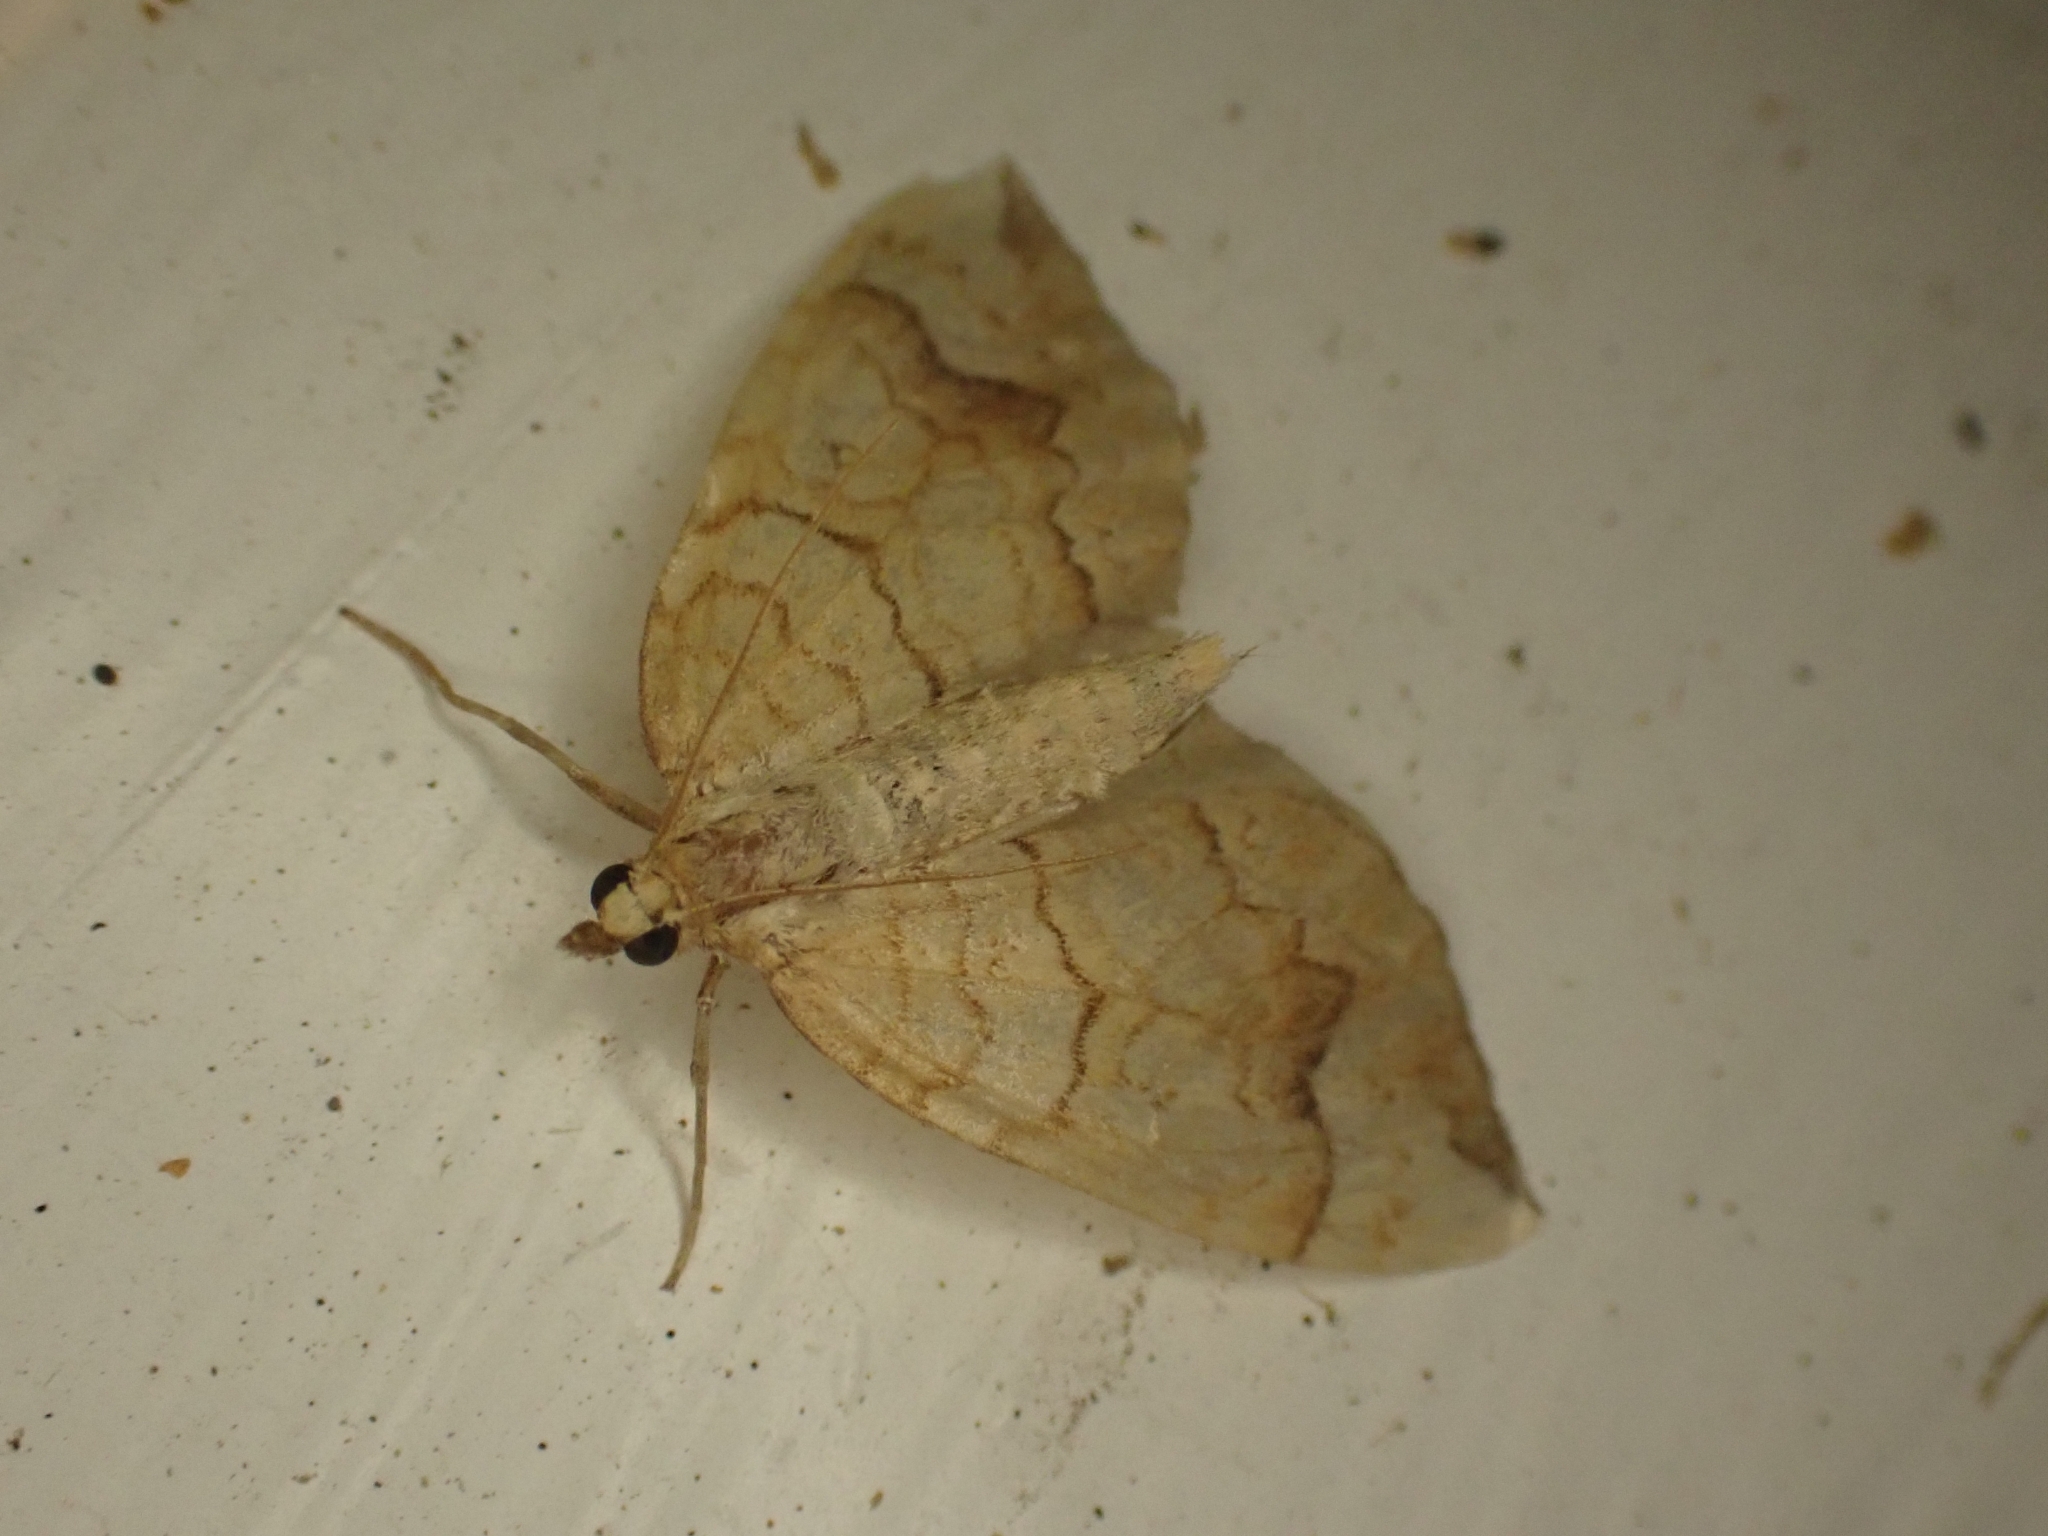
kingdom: Animalia
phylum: Arthropoda
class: Insecta
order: Lepidoptera
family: Geometridae
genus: Eulithis
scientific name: Eulithis populata
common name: Northern spinach
